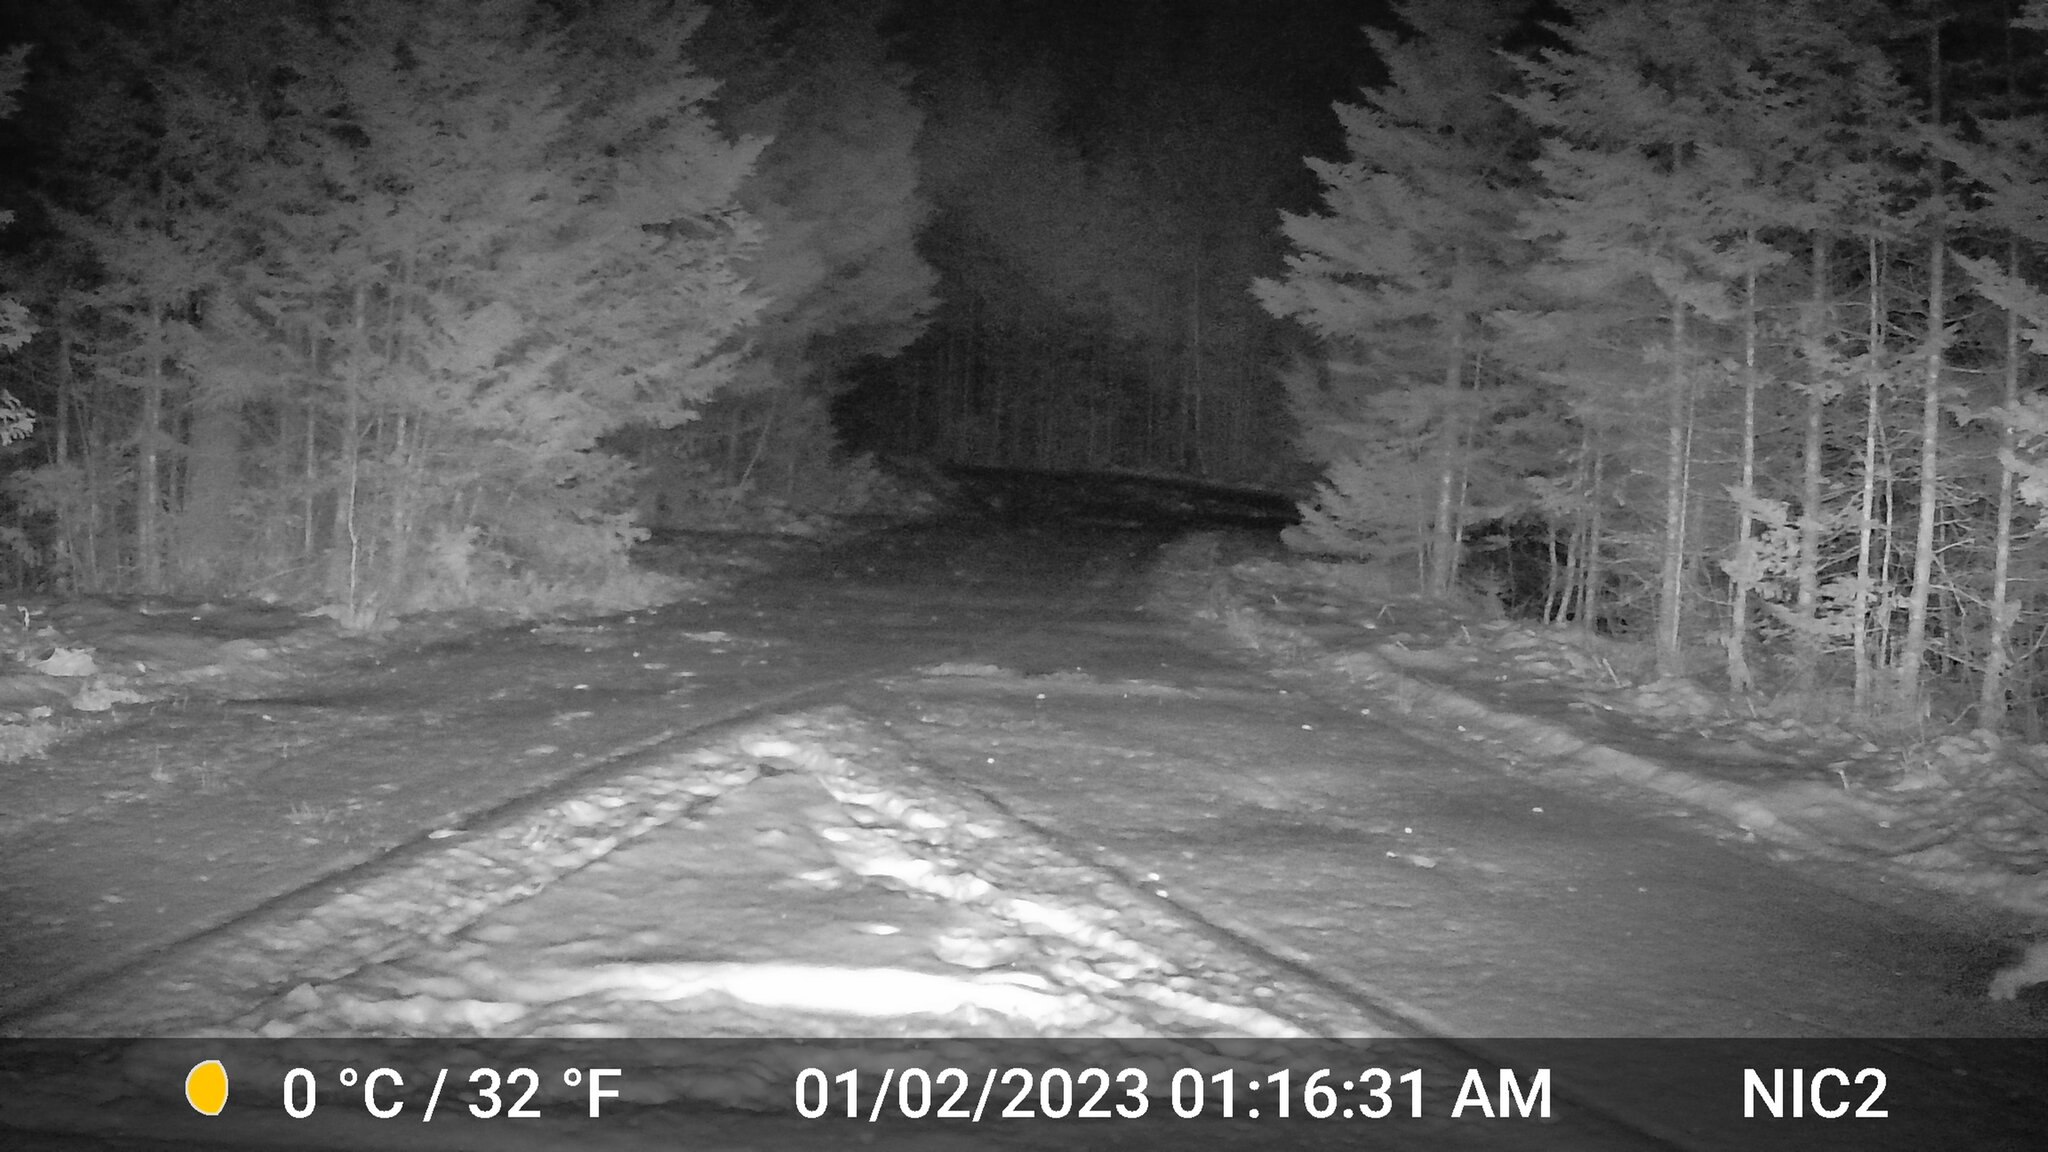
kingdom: Animalia
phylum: Chordata
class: Mammalia
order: Lagomorpha
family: Leporidae
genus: Lepus
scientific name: Lepus americanus
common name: Snowshoe hare
